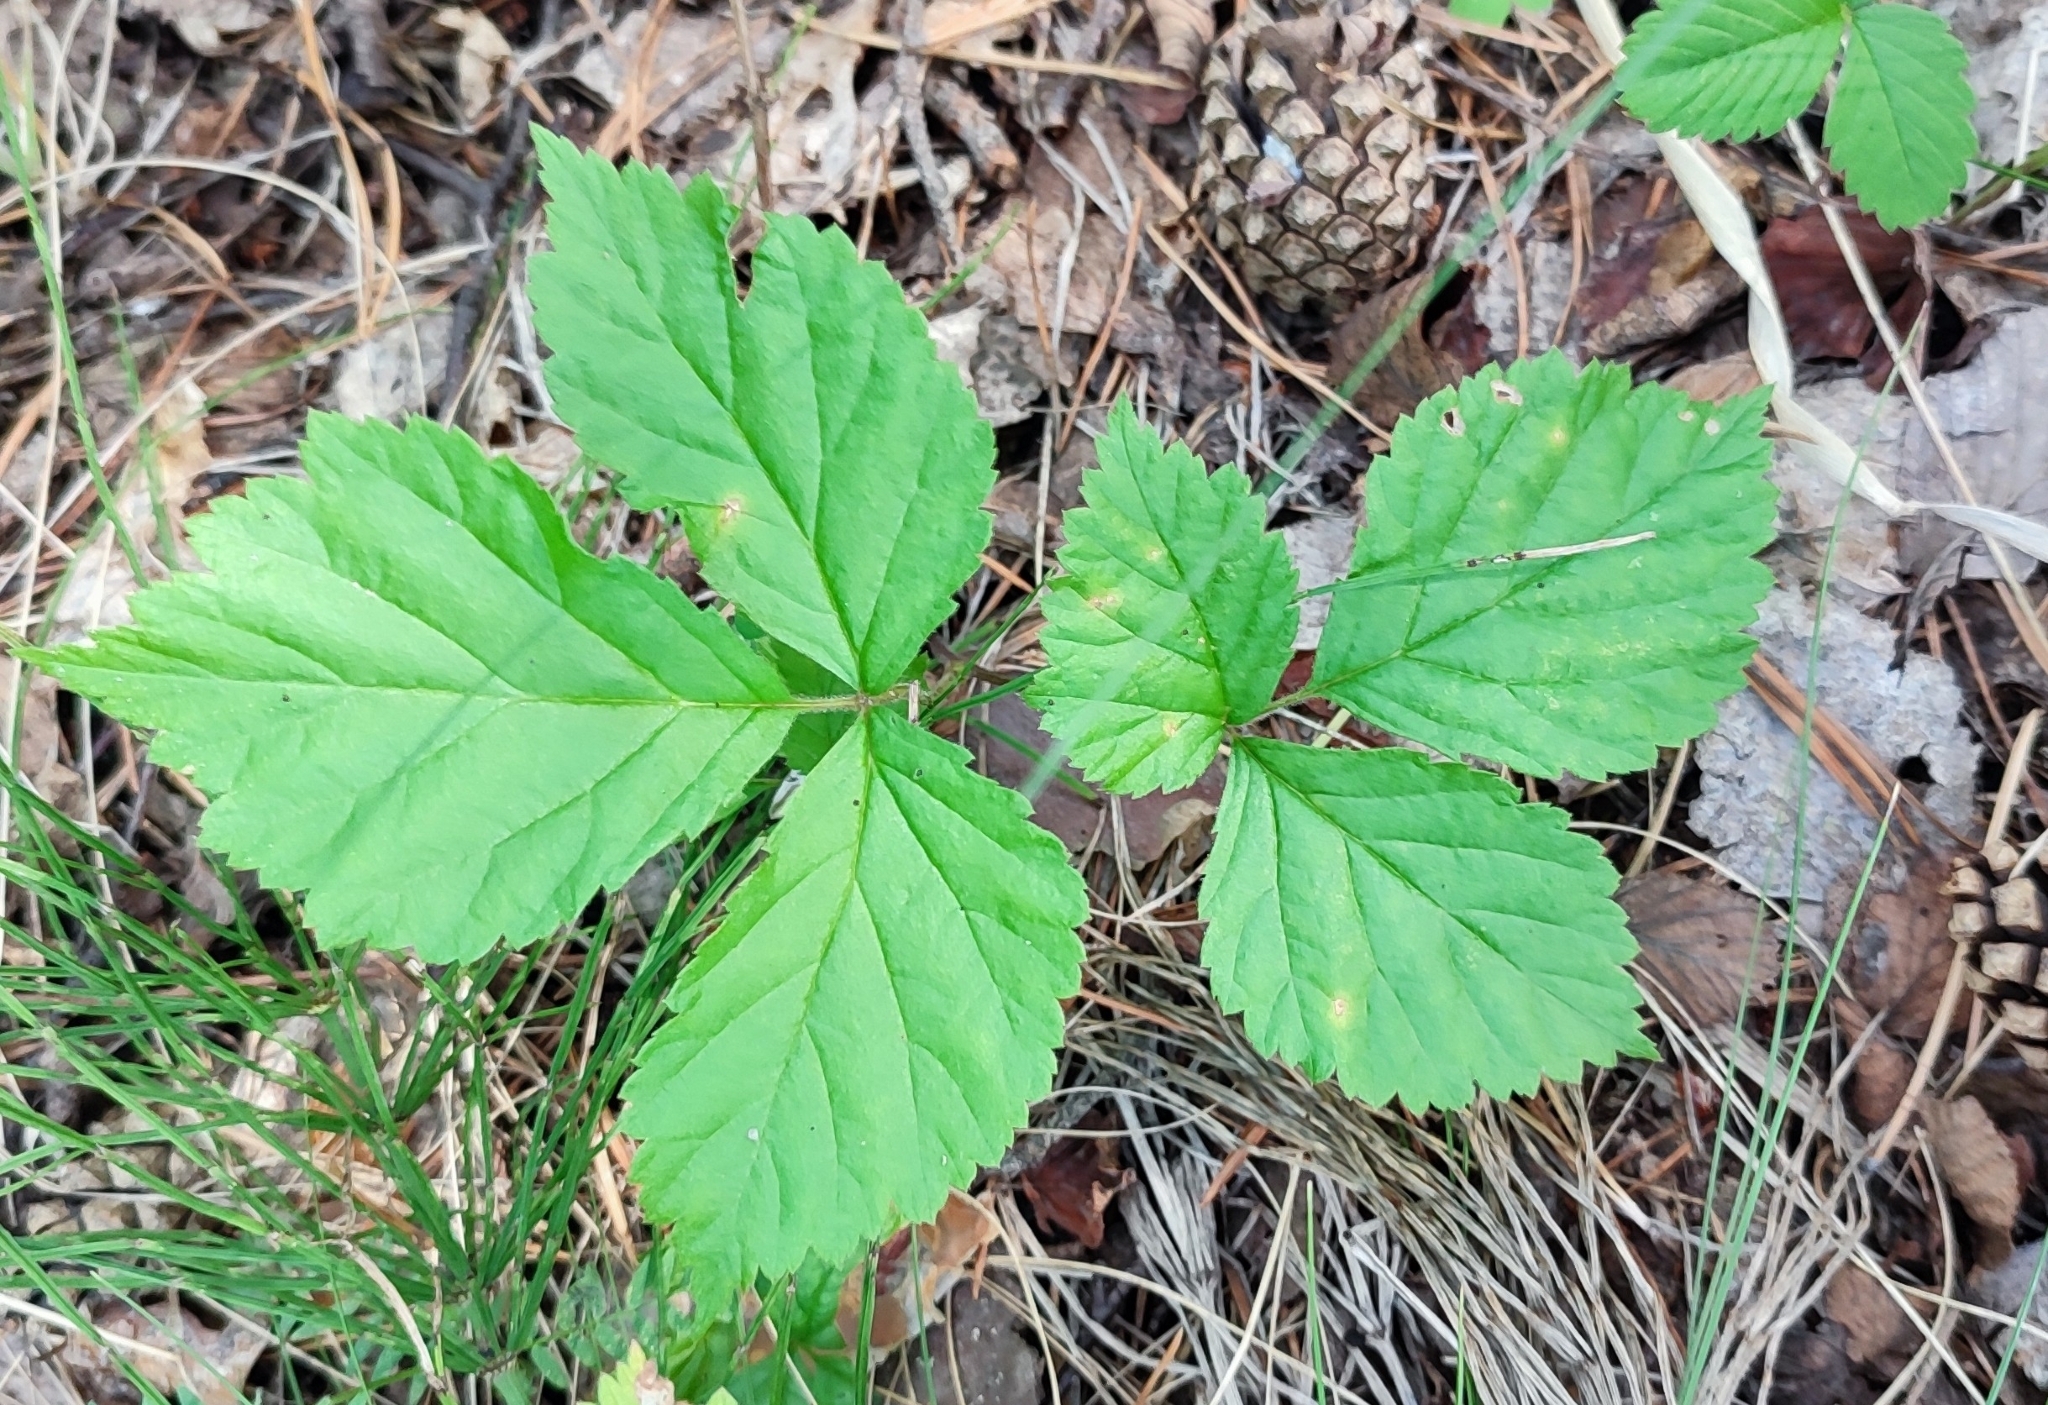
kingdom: Plantae
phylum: Tracheophyta
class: Magnoliopsida
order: Rosales
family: Rosaceae
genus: Rubus
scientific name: Rubus saxatilis
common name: Stone bramble
